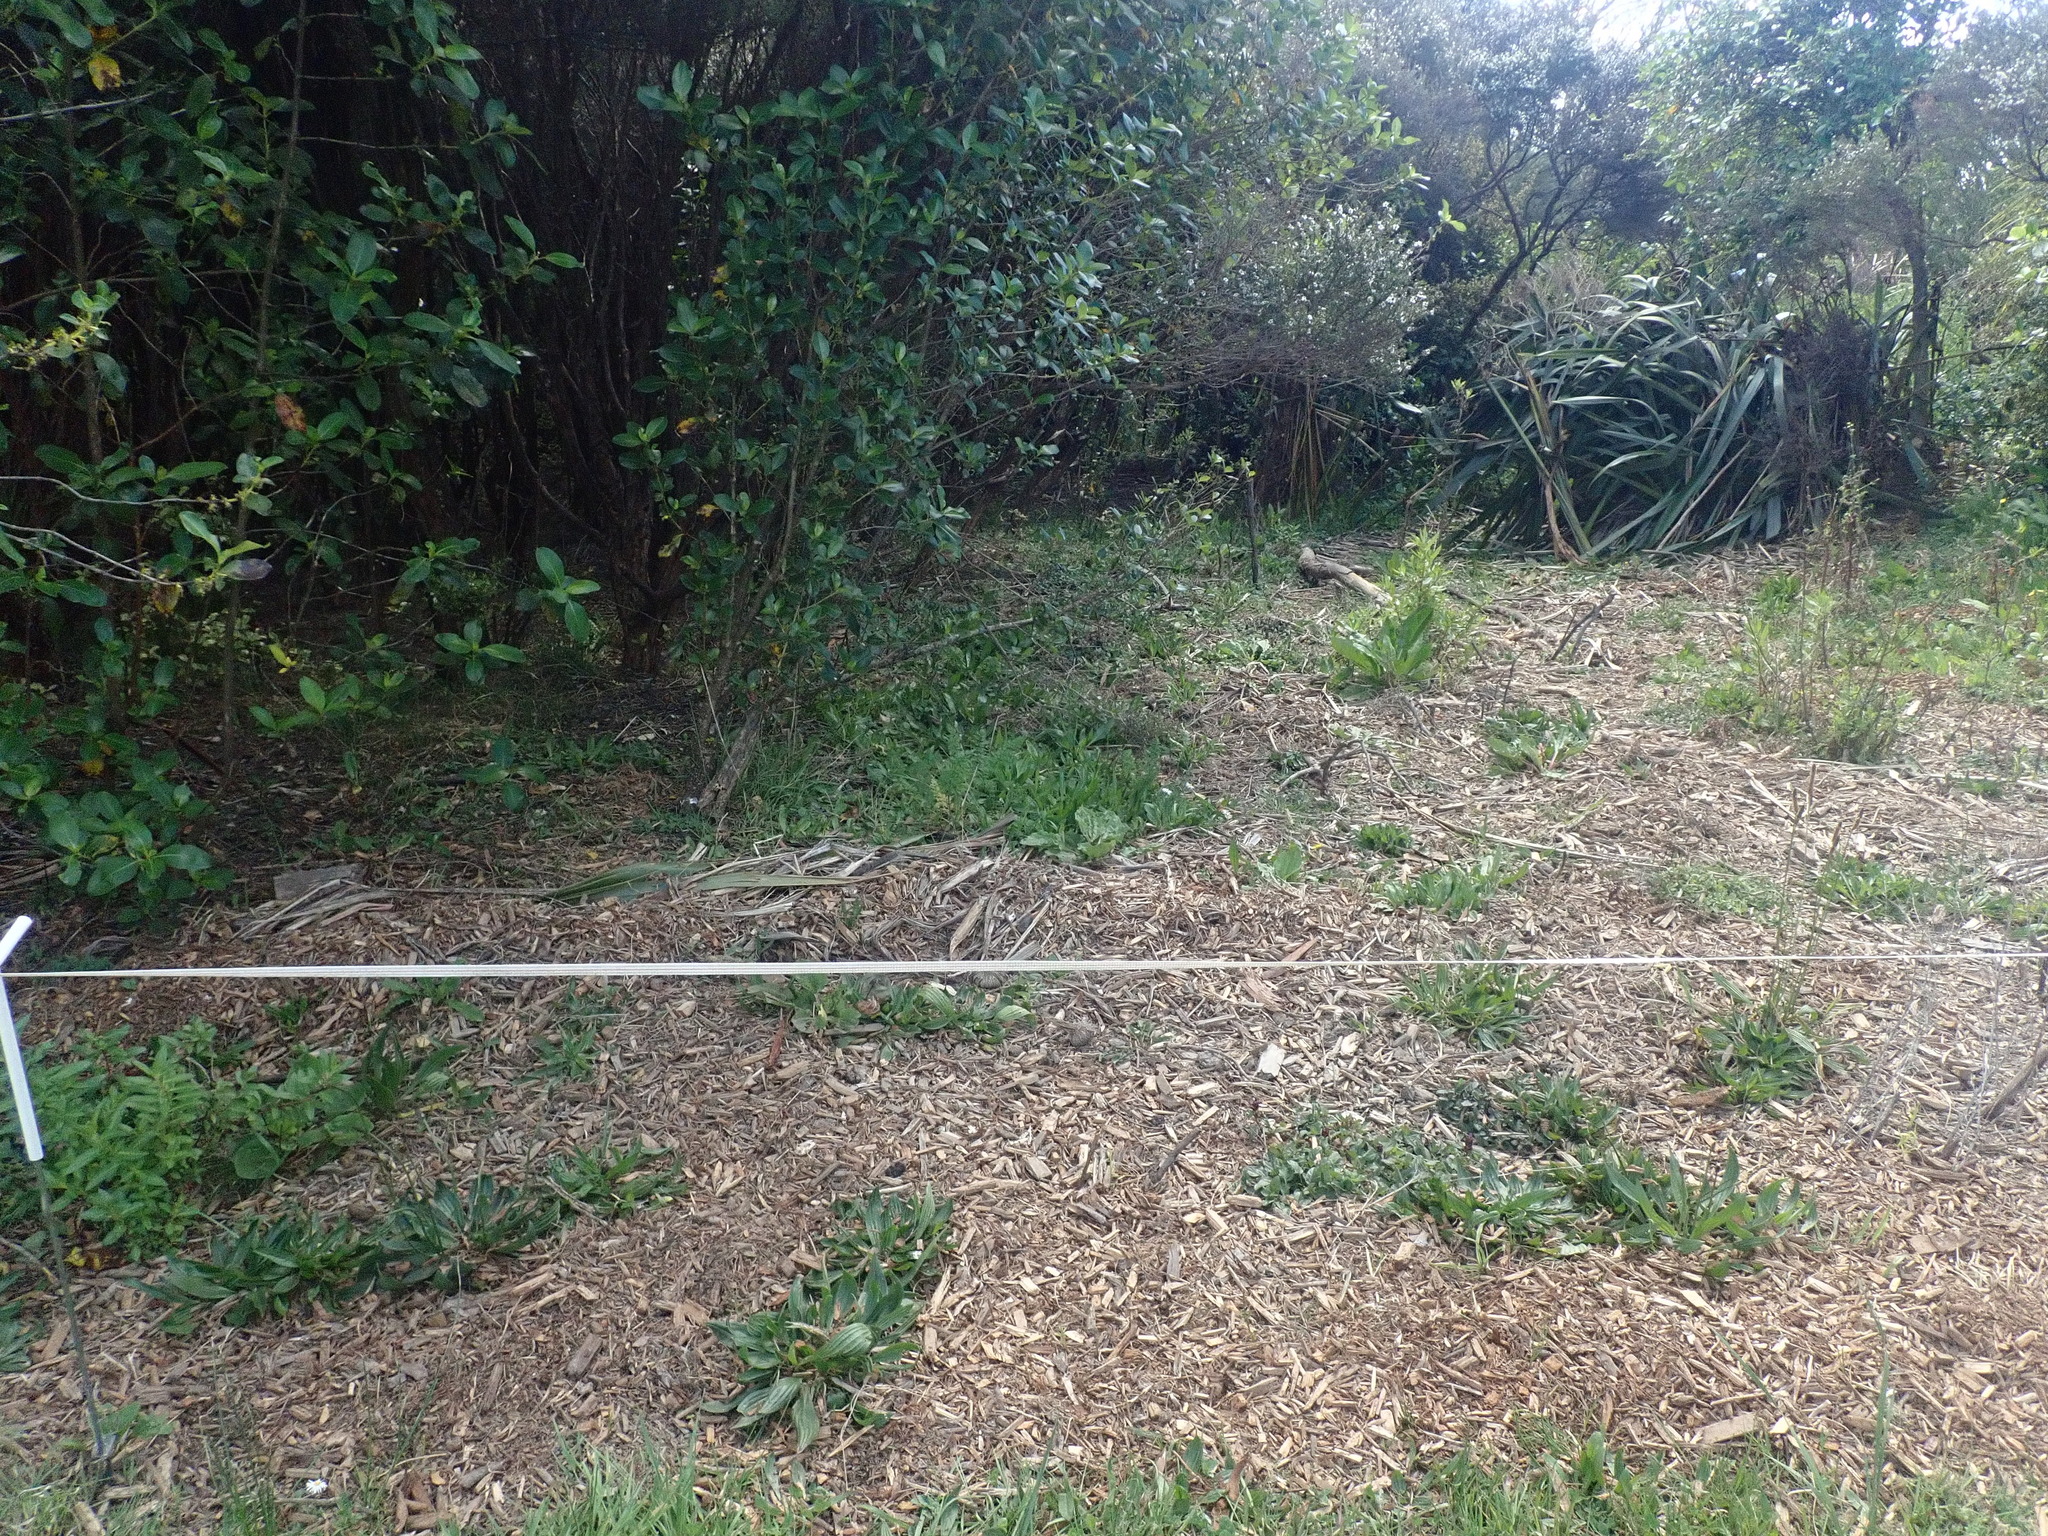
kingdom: Plantae
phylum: Tracheophyta
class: Magnoliopsida
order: Gentianales
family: Rubiaceae
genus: Coprosma
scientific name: Coprosma robusta
